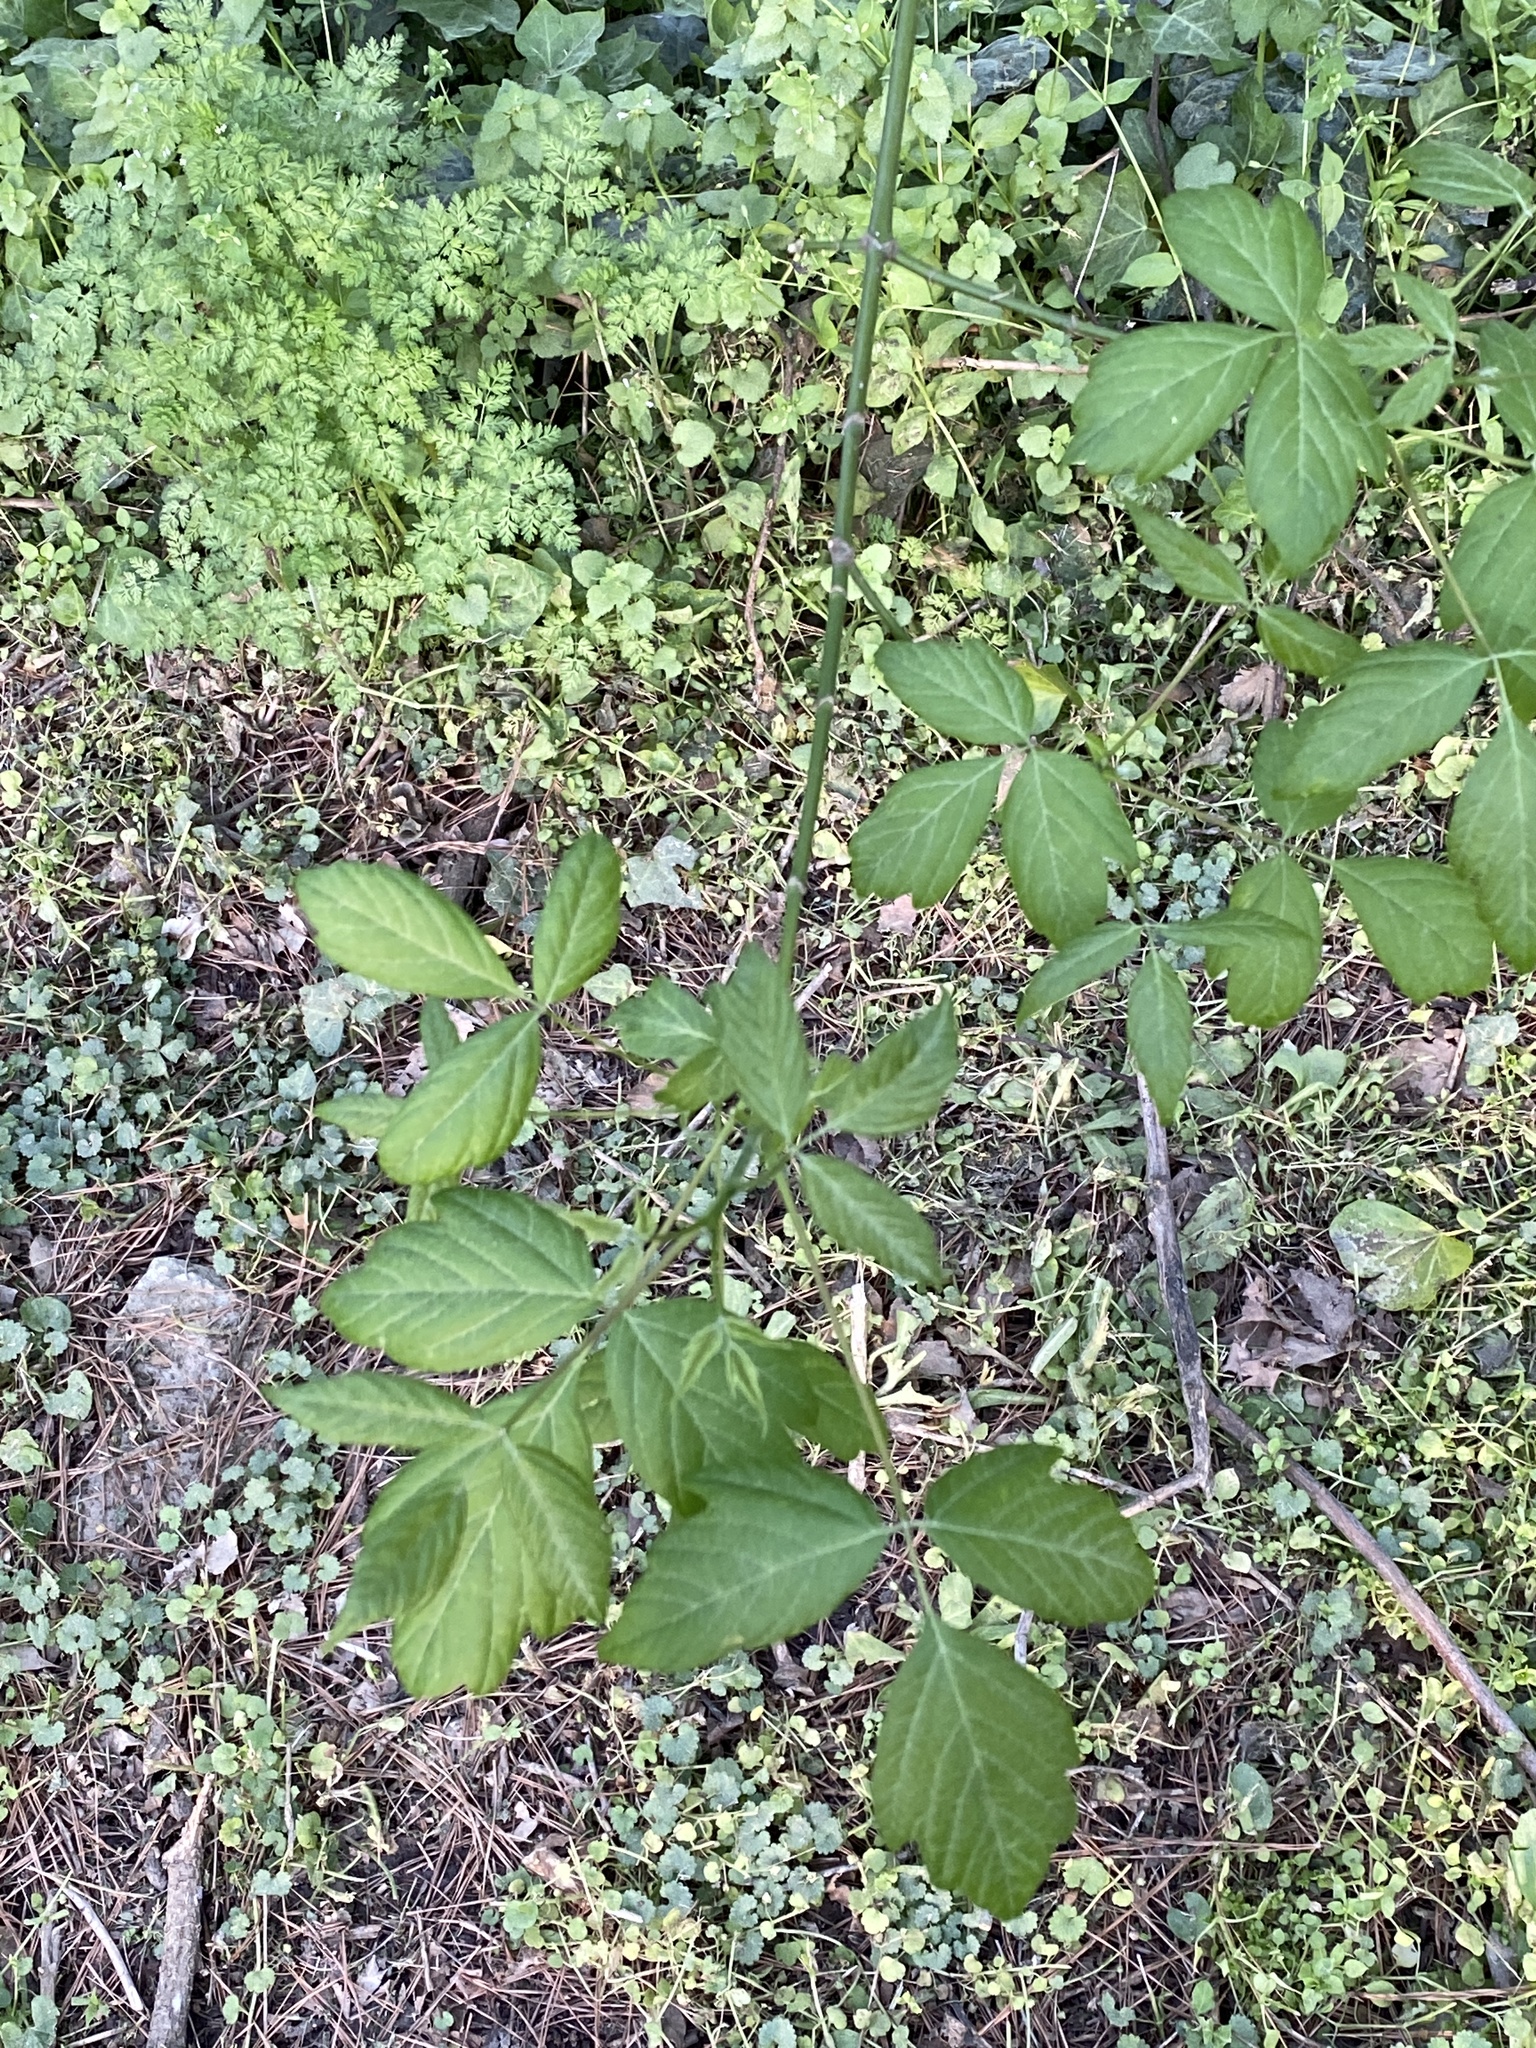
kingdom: Plantae
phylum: Tracheophyta
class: Magnoliopsida
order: Sapindales
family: Sapindaceae
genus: Acer
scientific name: Acer negundo
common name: Ashleaf maple
